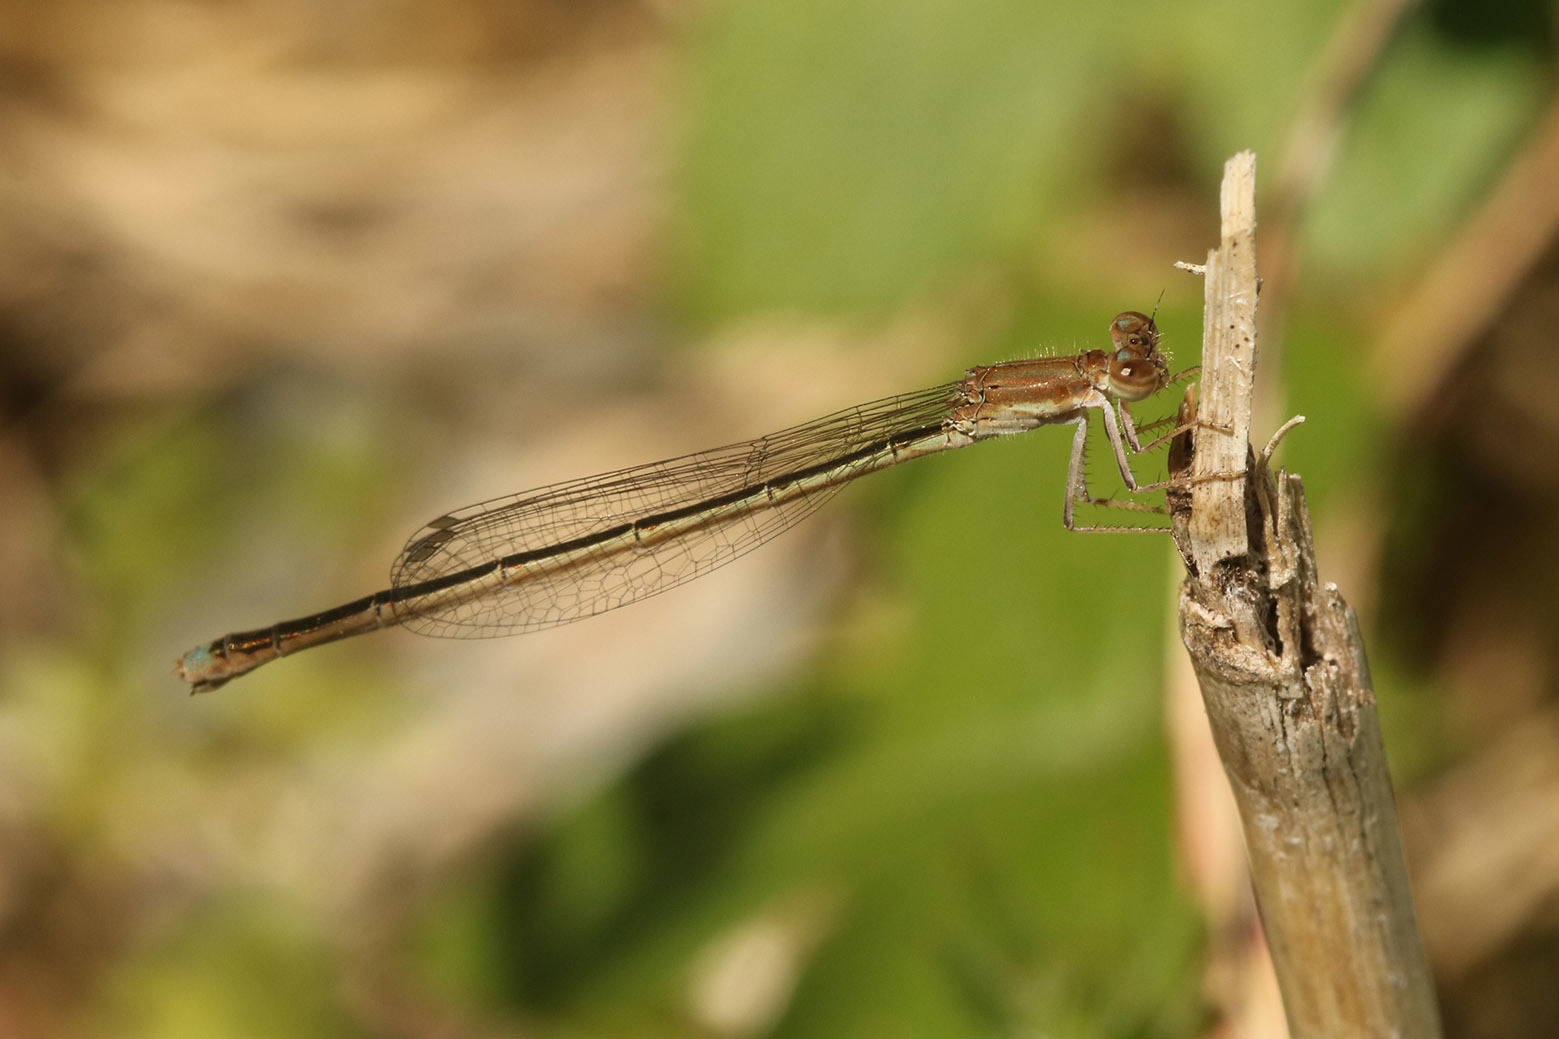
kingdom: Animalia
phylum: Arthropoda
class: Insecta
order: Odonata
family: Coenagrionidae
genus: Argentagrion
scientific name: Argentagrion ambiguum
